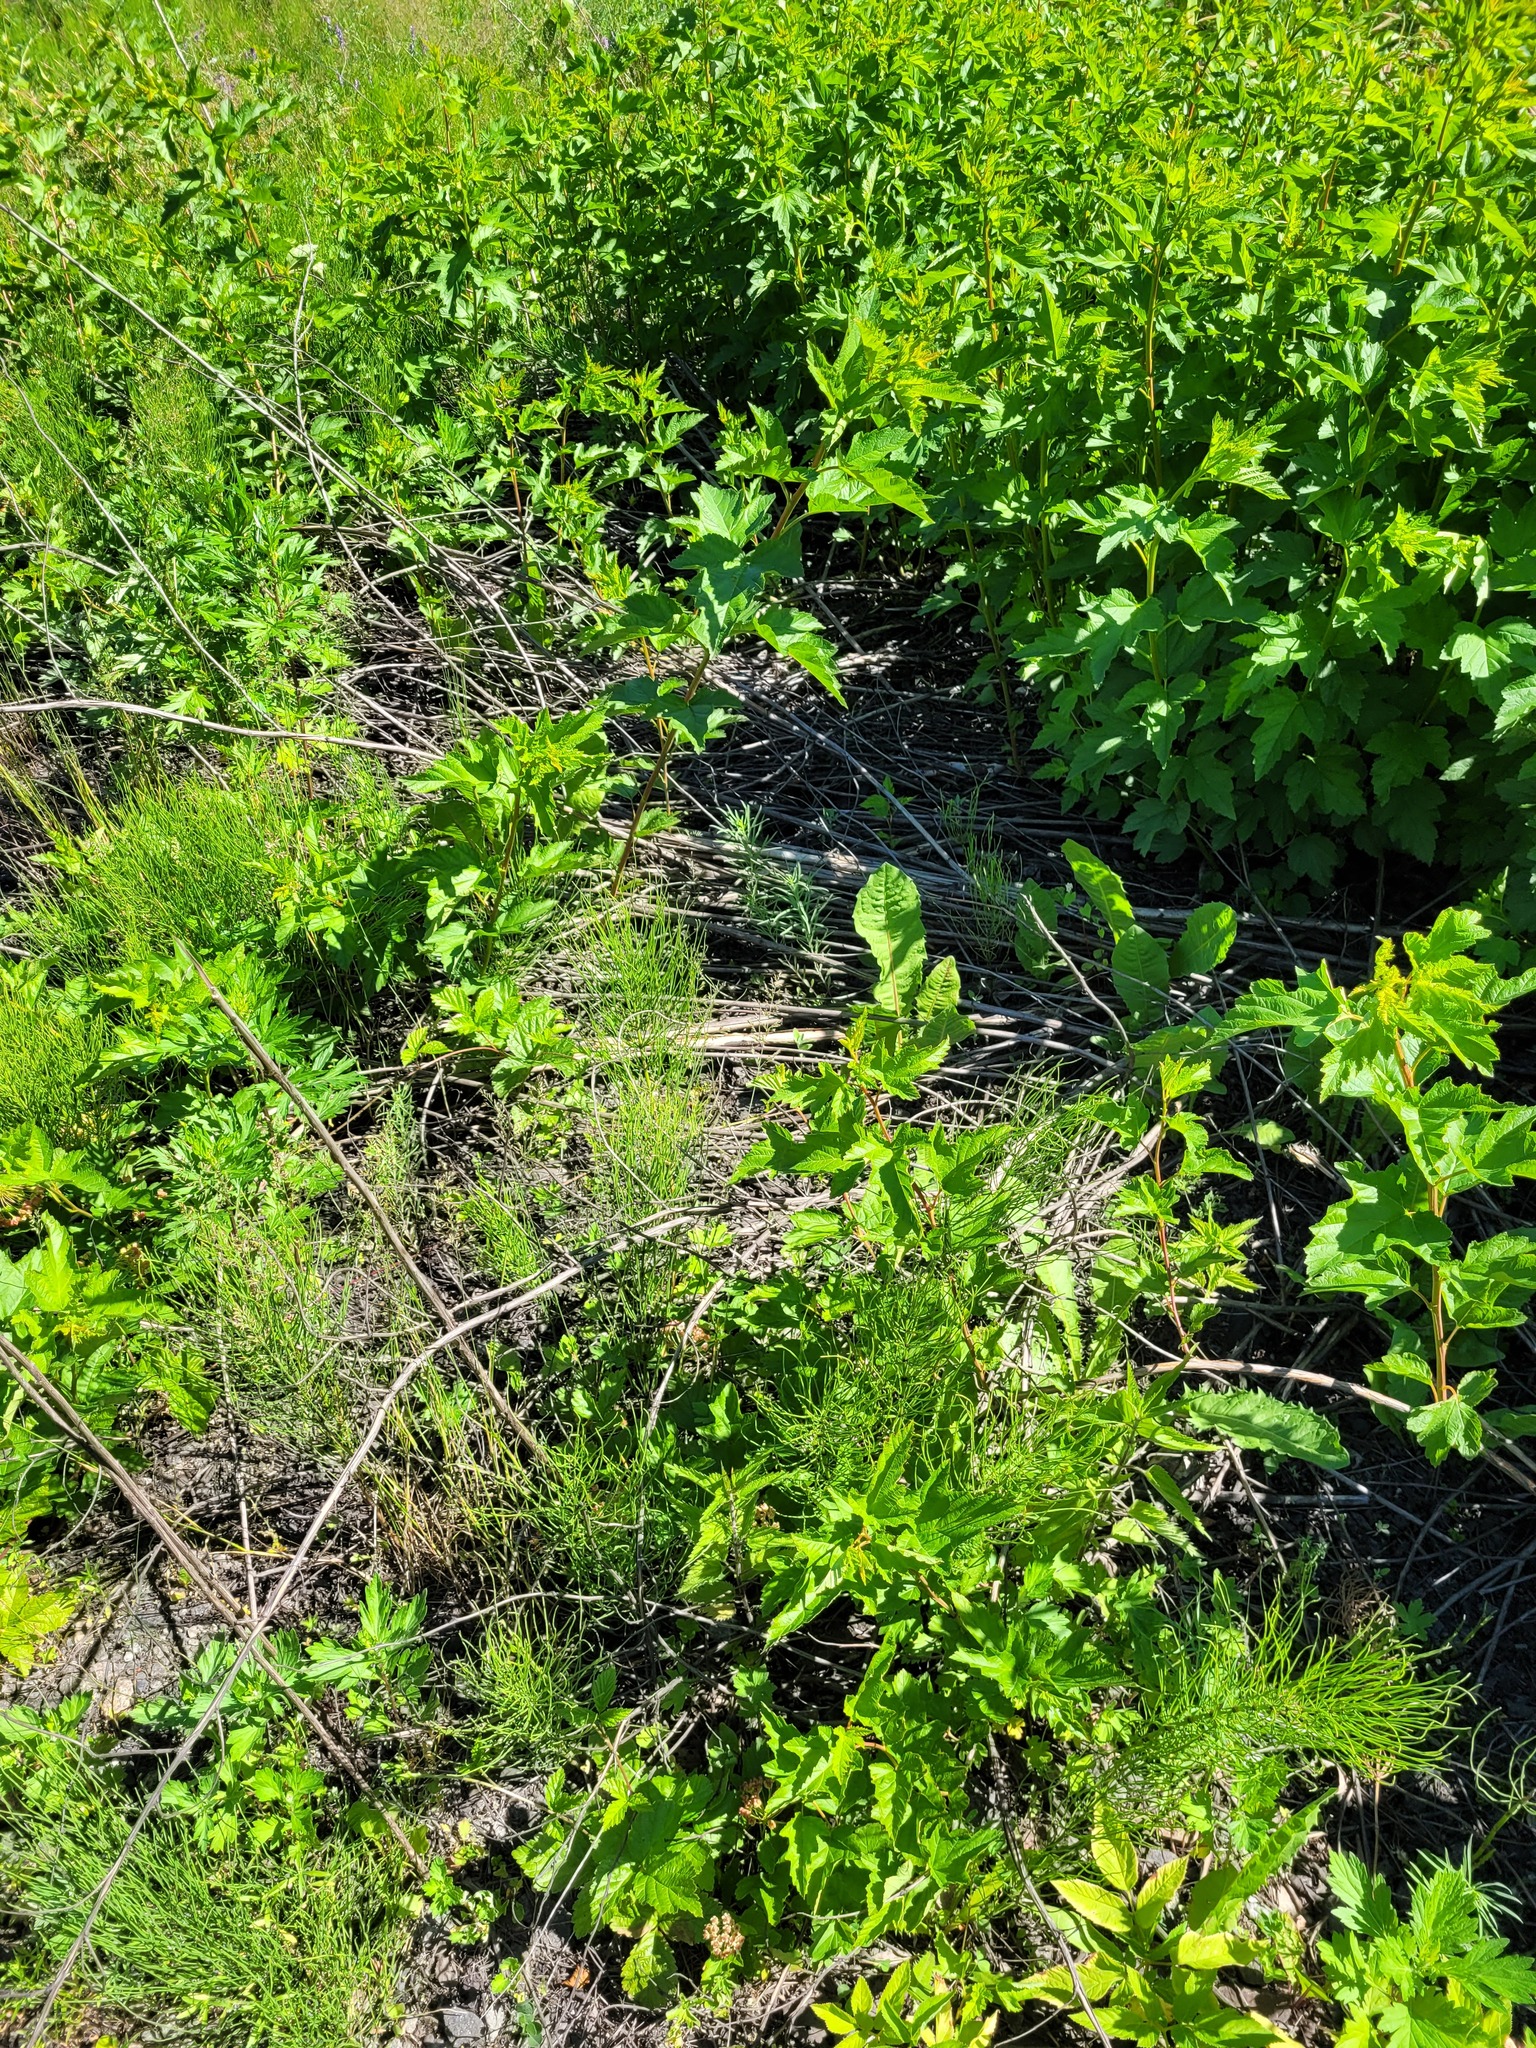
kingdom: Plantae
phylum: Tracheophyta
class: Magnoliopsida
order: Rosales
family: Rosaceae
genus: Physocarpus
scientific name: Physocarpus opulifolius
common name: Ninebark
